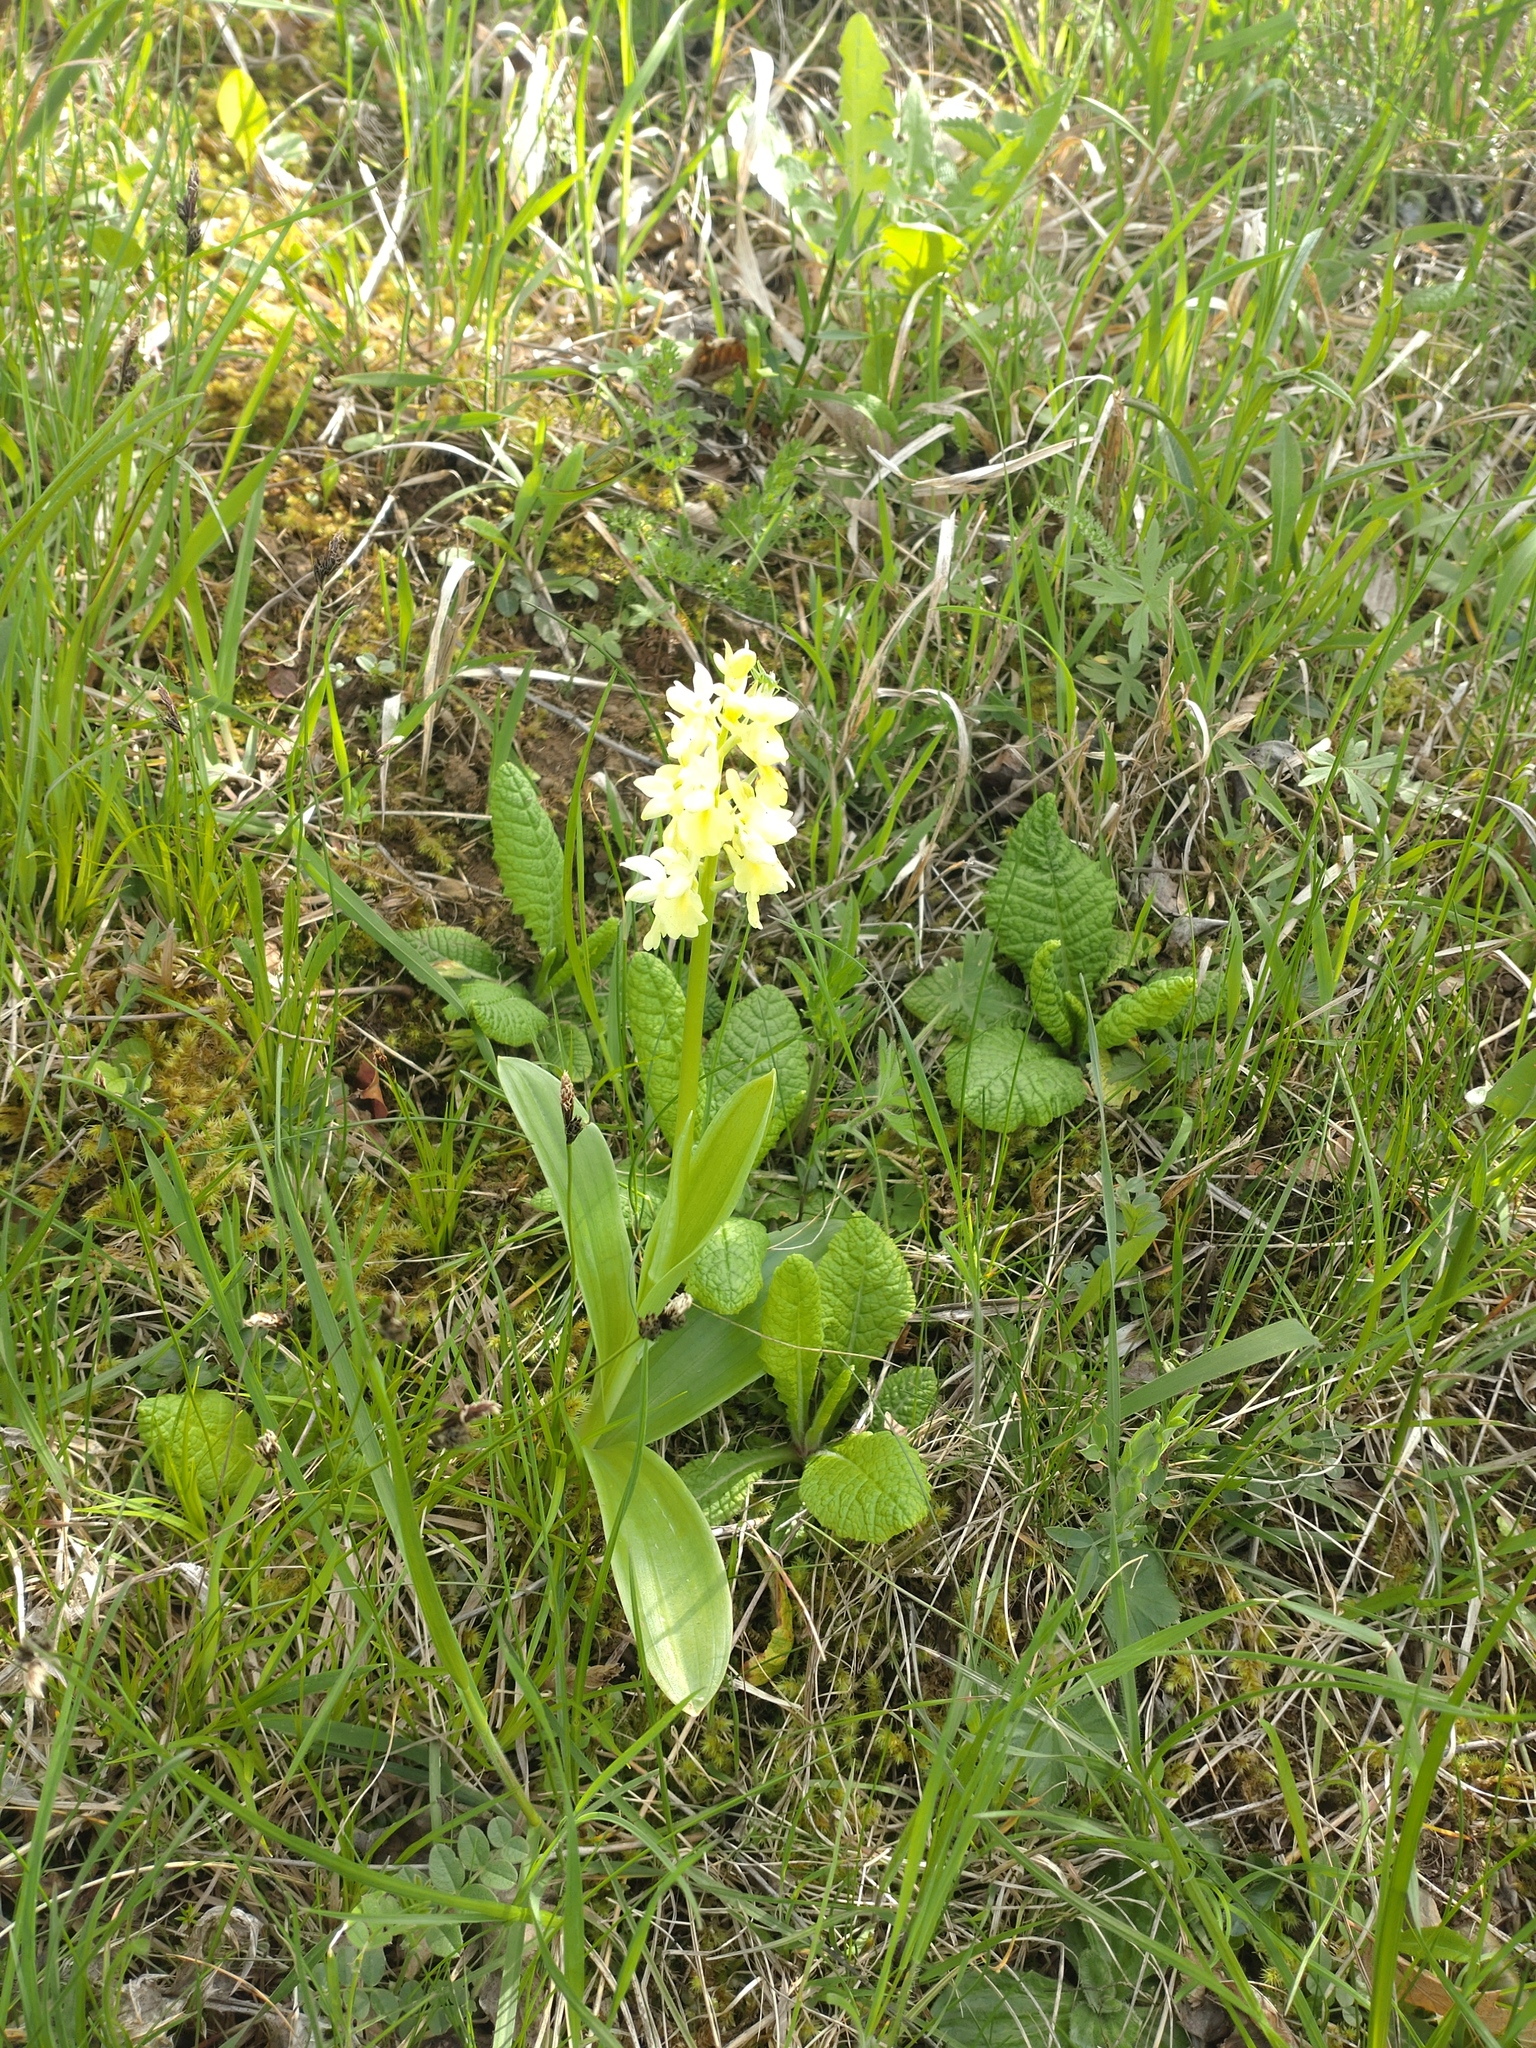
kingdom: Plantae
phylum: Tracheophyta
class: Liliopsida
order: Asparagales
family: Orchidaceae
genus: Orchis
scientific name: Orchis pallens
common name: Pale-flowered orchid
